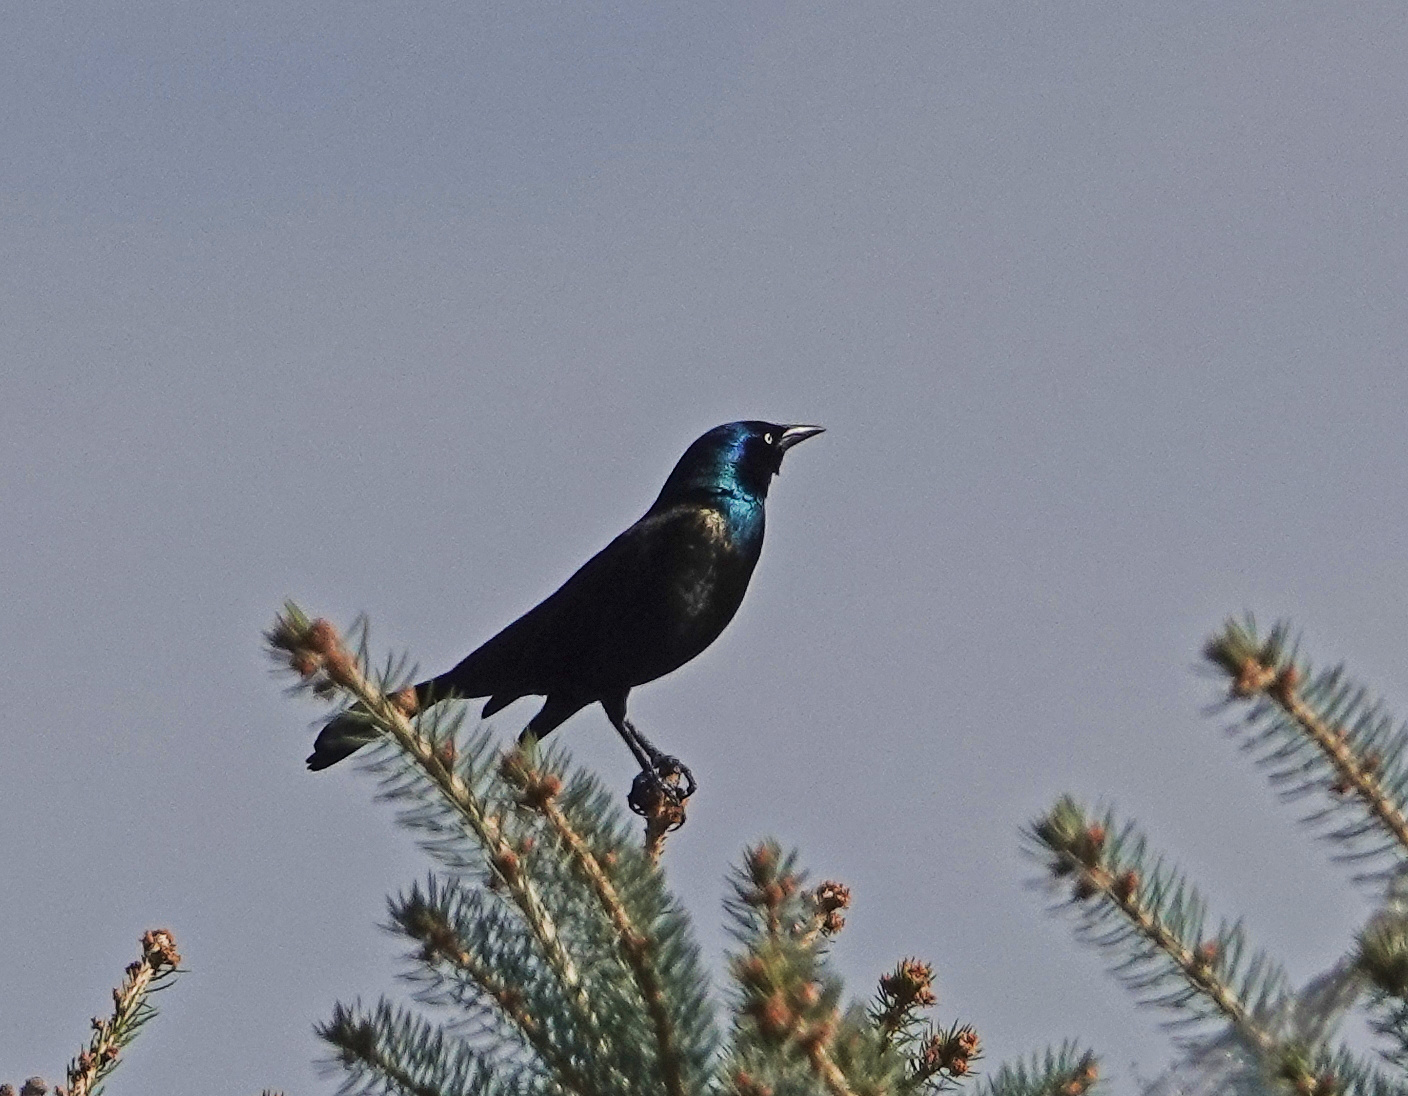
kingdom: Animalia
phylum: Chordata
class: Aves
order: Passeriformes
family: Icteridae
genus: Quiscalus
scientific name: Quiscalus quiscula
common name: Common grackle
